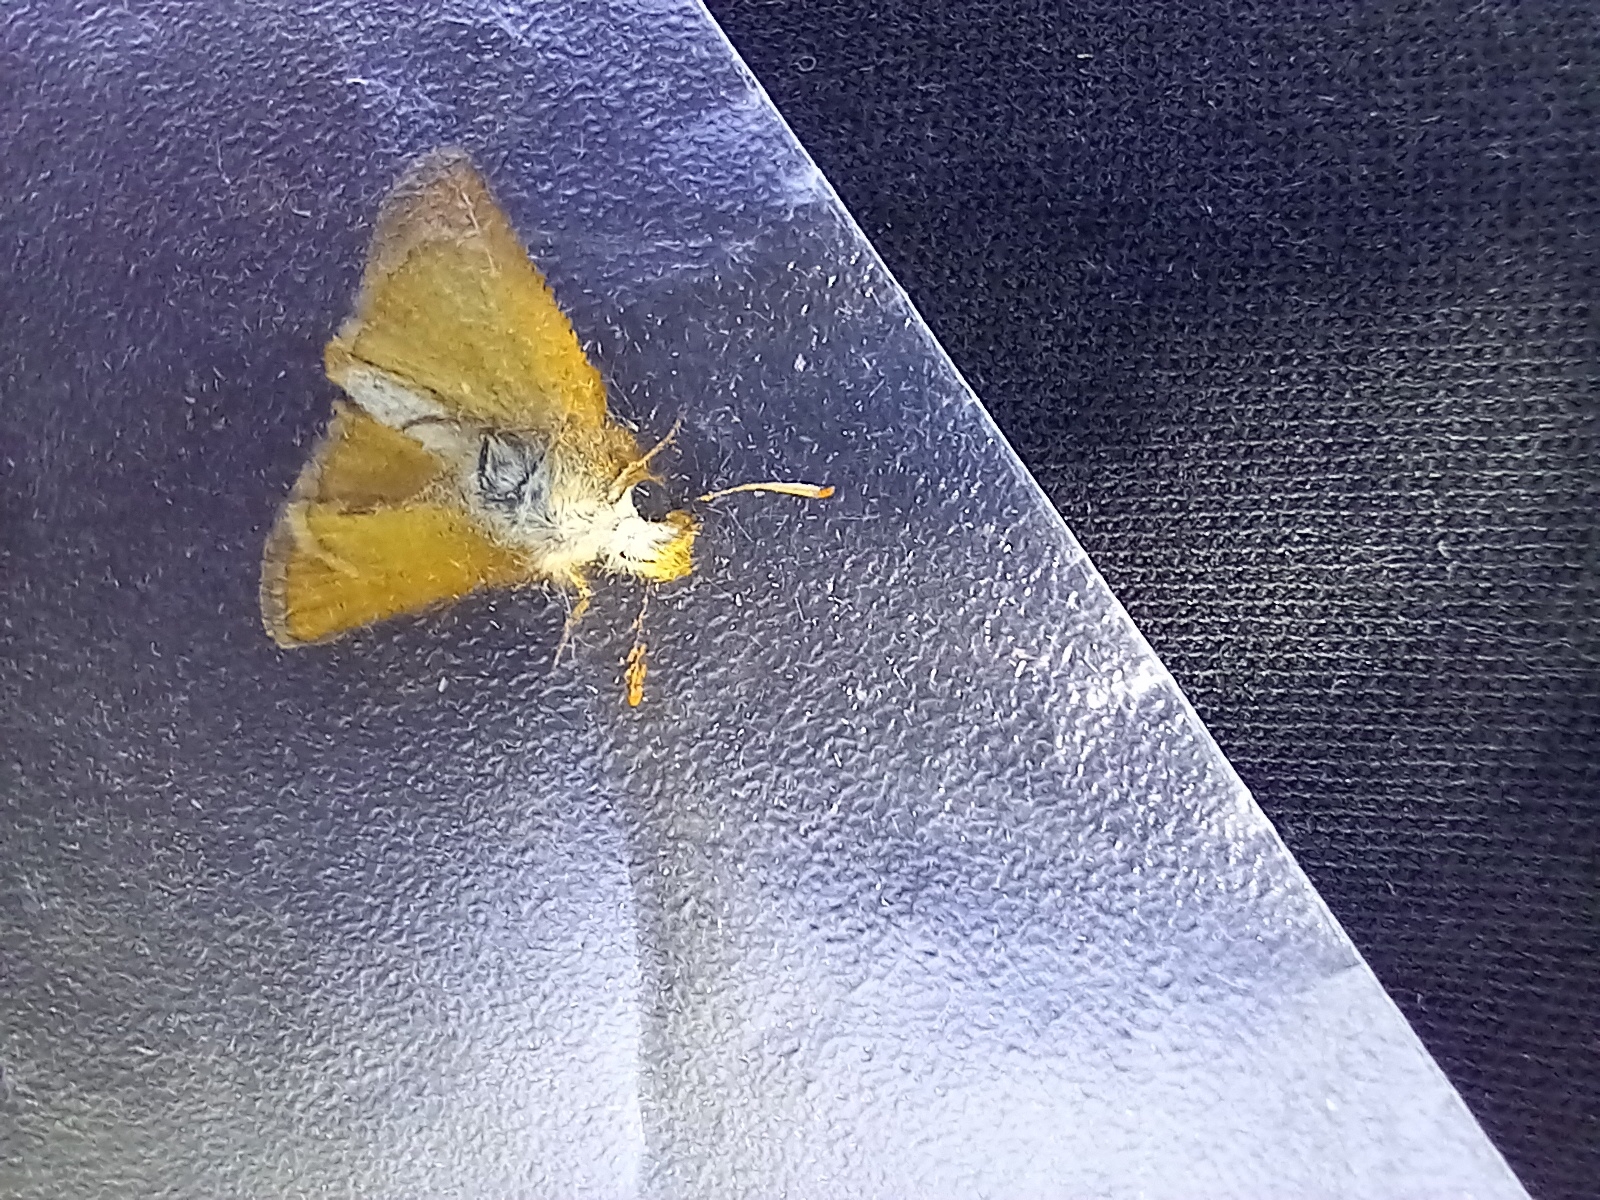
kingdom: Animalia
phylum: Arthropoda
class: Insecta
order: Lepidoptera
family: Hesperiidae
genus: Thymelicus
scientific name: Thymelicus acteon
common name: Lulworth skipper
